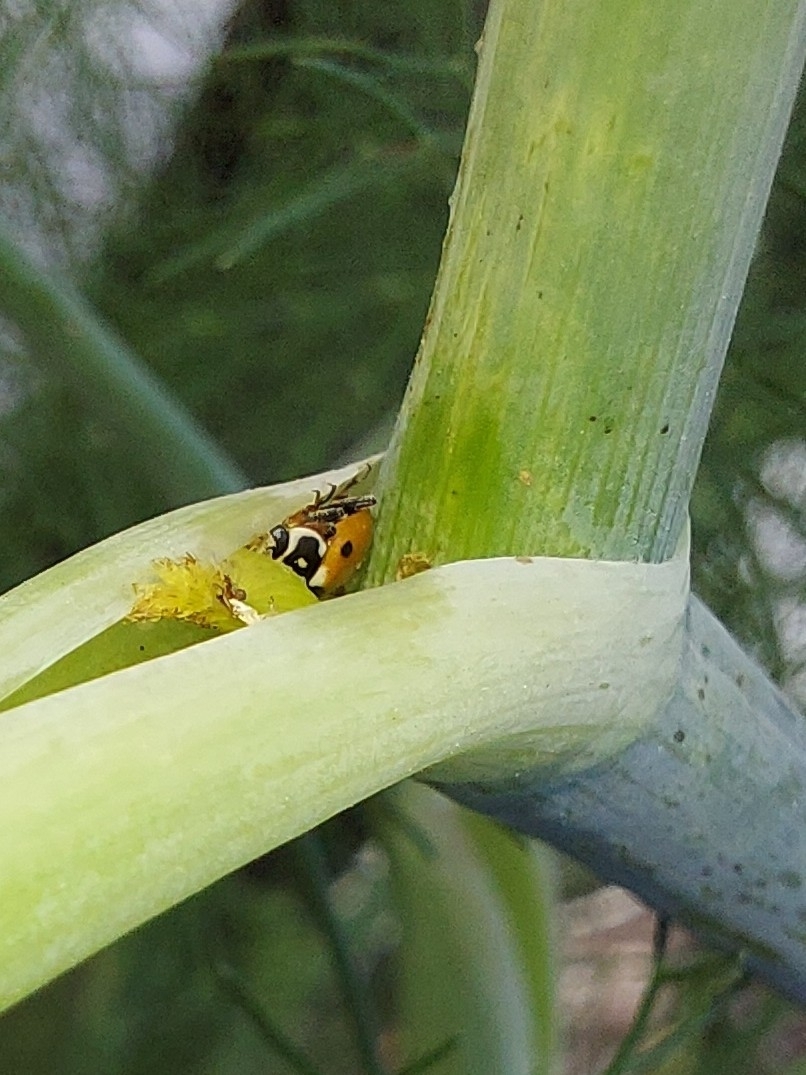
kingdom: Animalia
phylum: Arthropoda
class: Insecta
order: Coleoptera
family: Coccinellidae
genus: Hippodamia
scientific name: Hippodamia variegata
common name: Ladybird beetle
